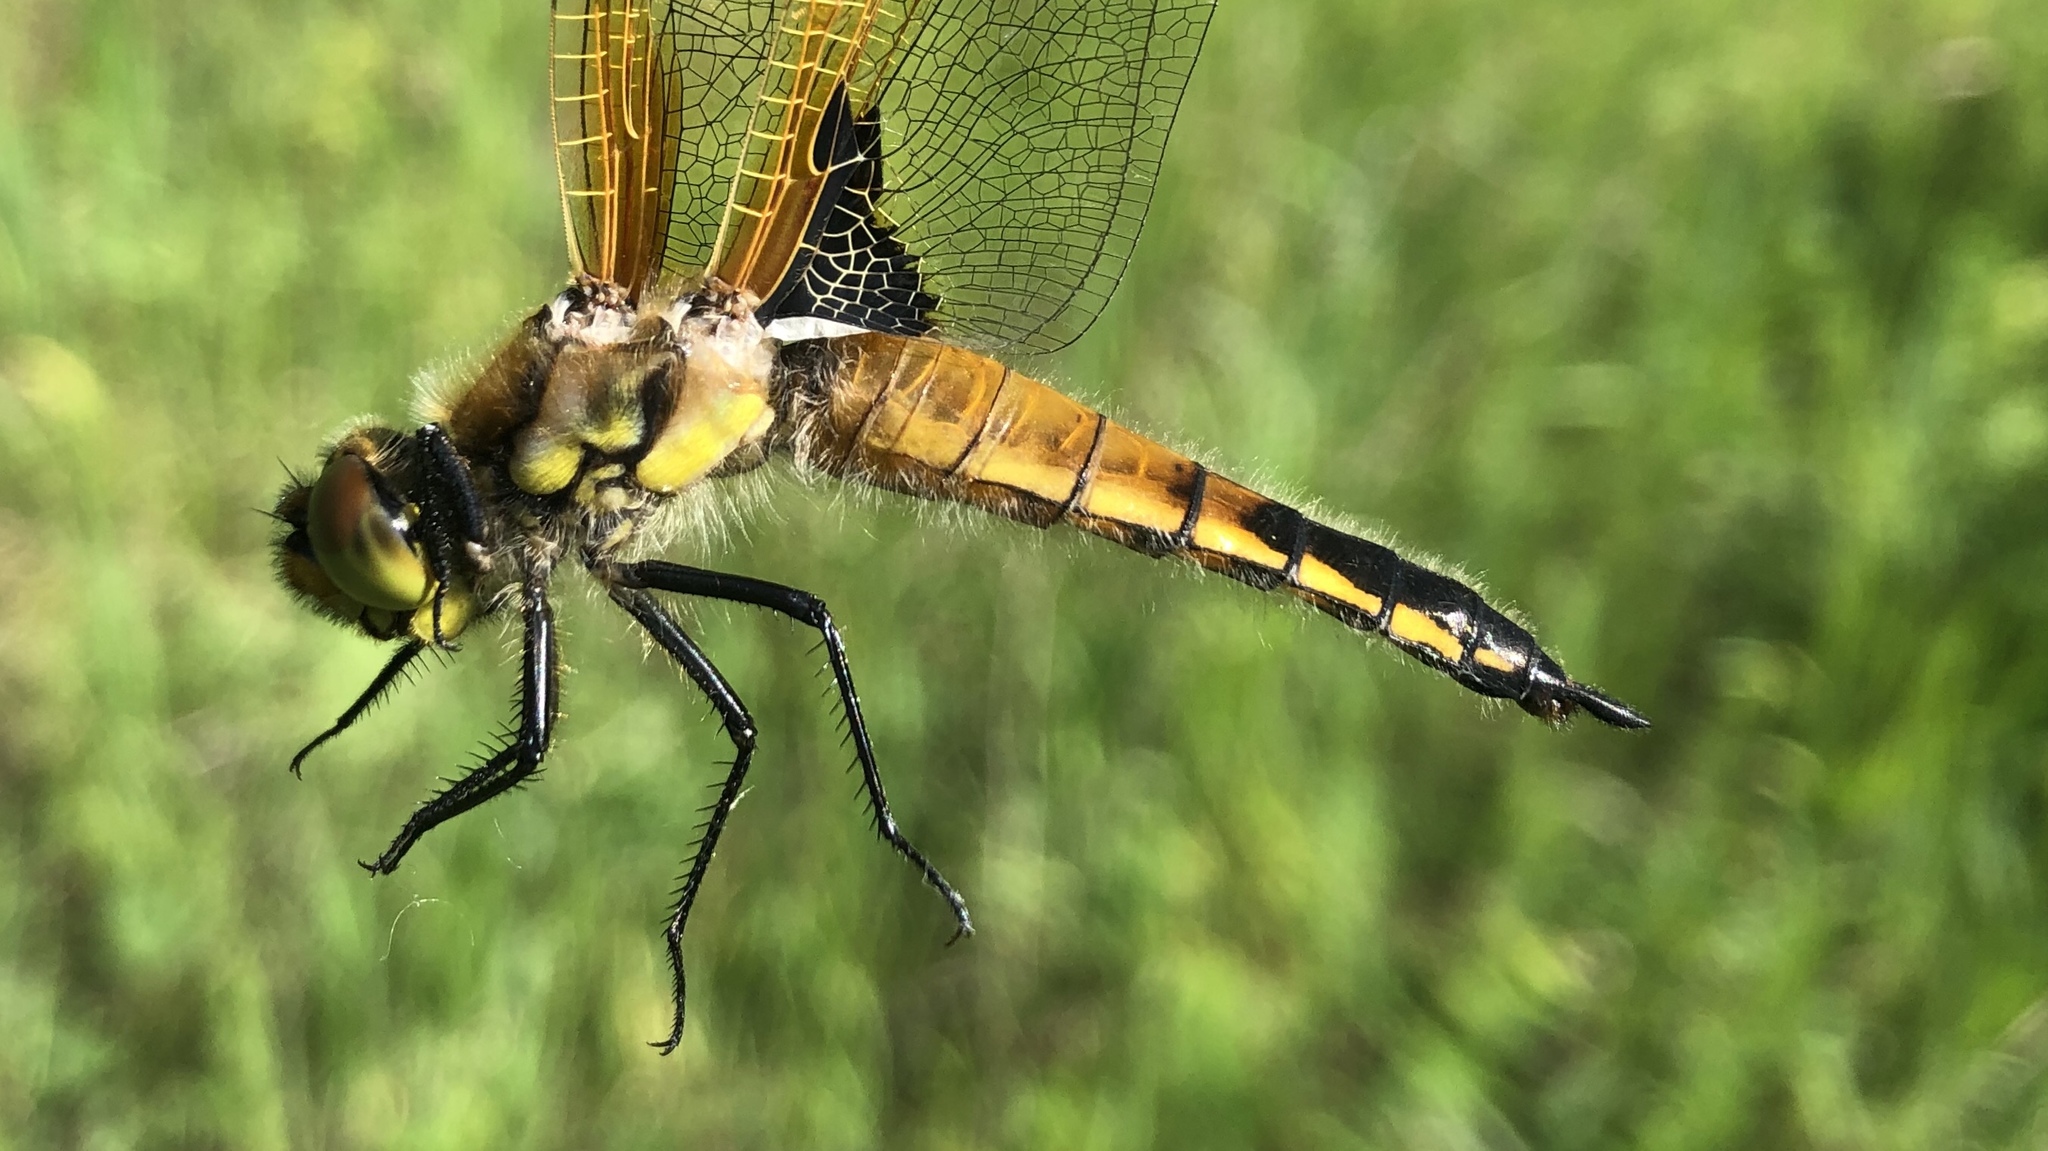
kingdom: Animalia
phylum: Arthropoda
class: Insecta
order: Odonata
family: Libellulidae
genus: Libellula
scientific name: Libellula quadrimaculata
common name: Four-spotted chaser
